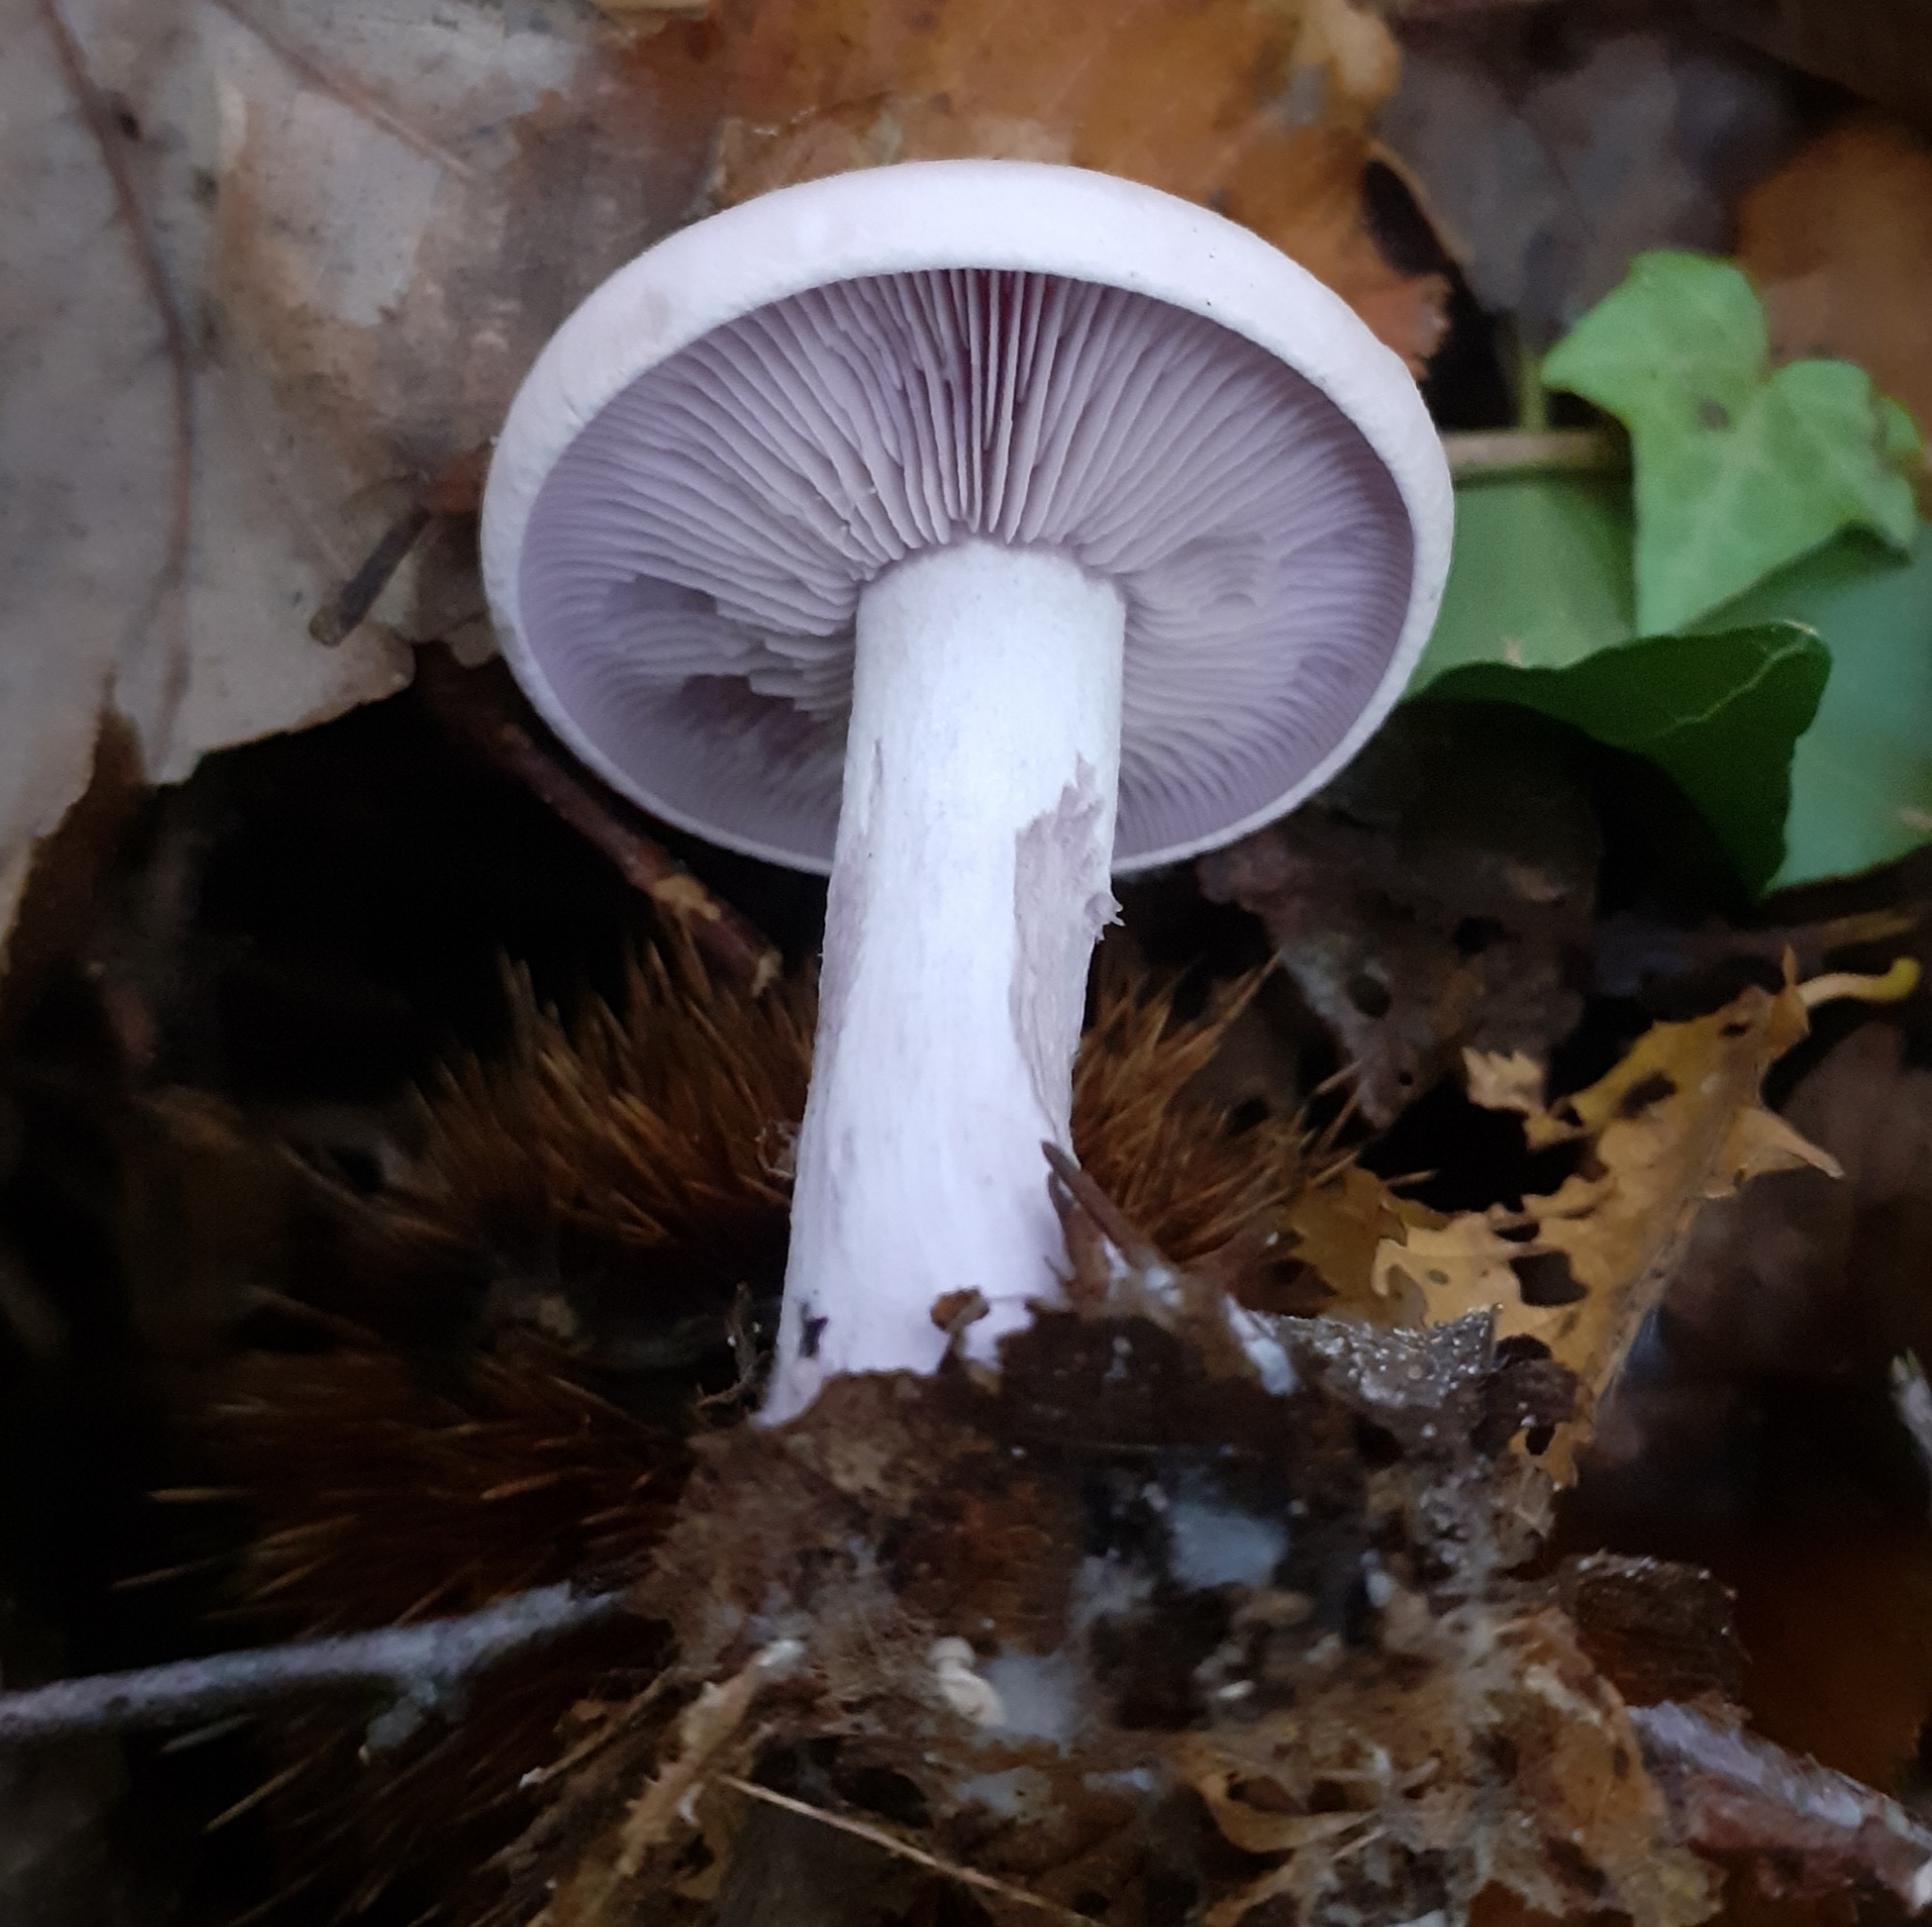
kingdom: Fungi
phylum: Basidiomycota
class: Agaricomycetes
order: Agaricales
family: Tricholomataceae
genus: Collybia
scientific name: Collybia
